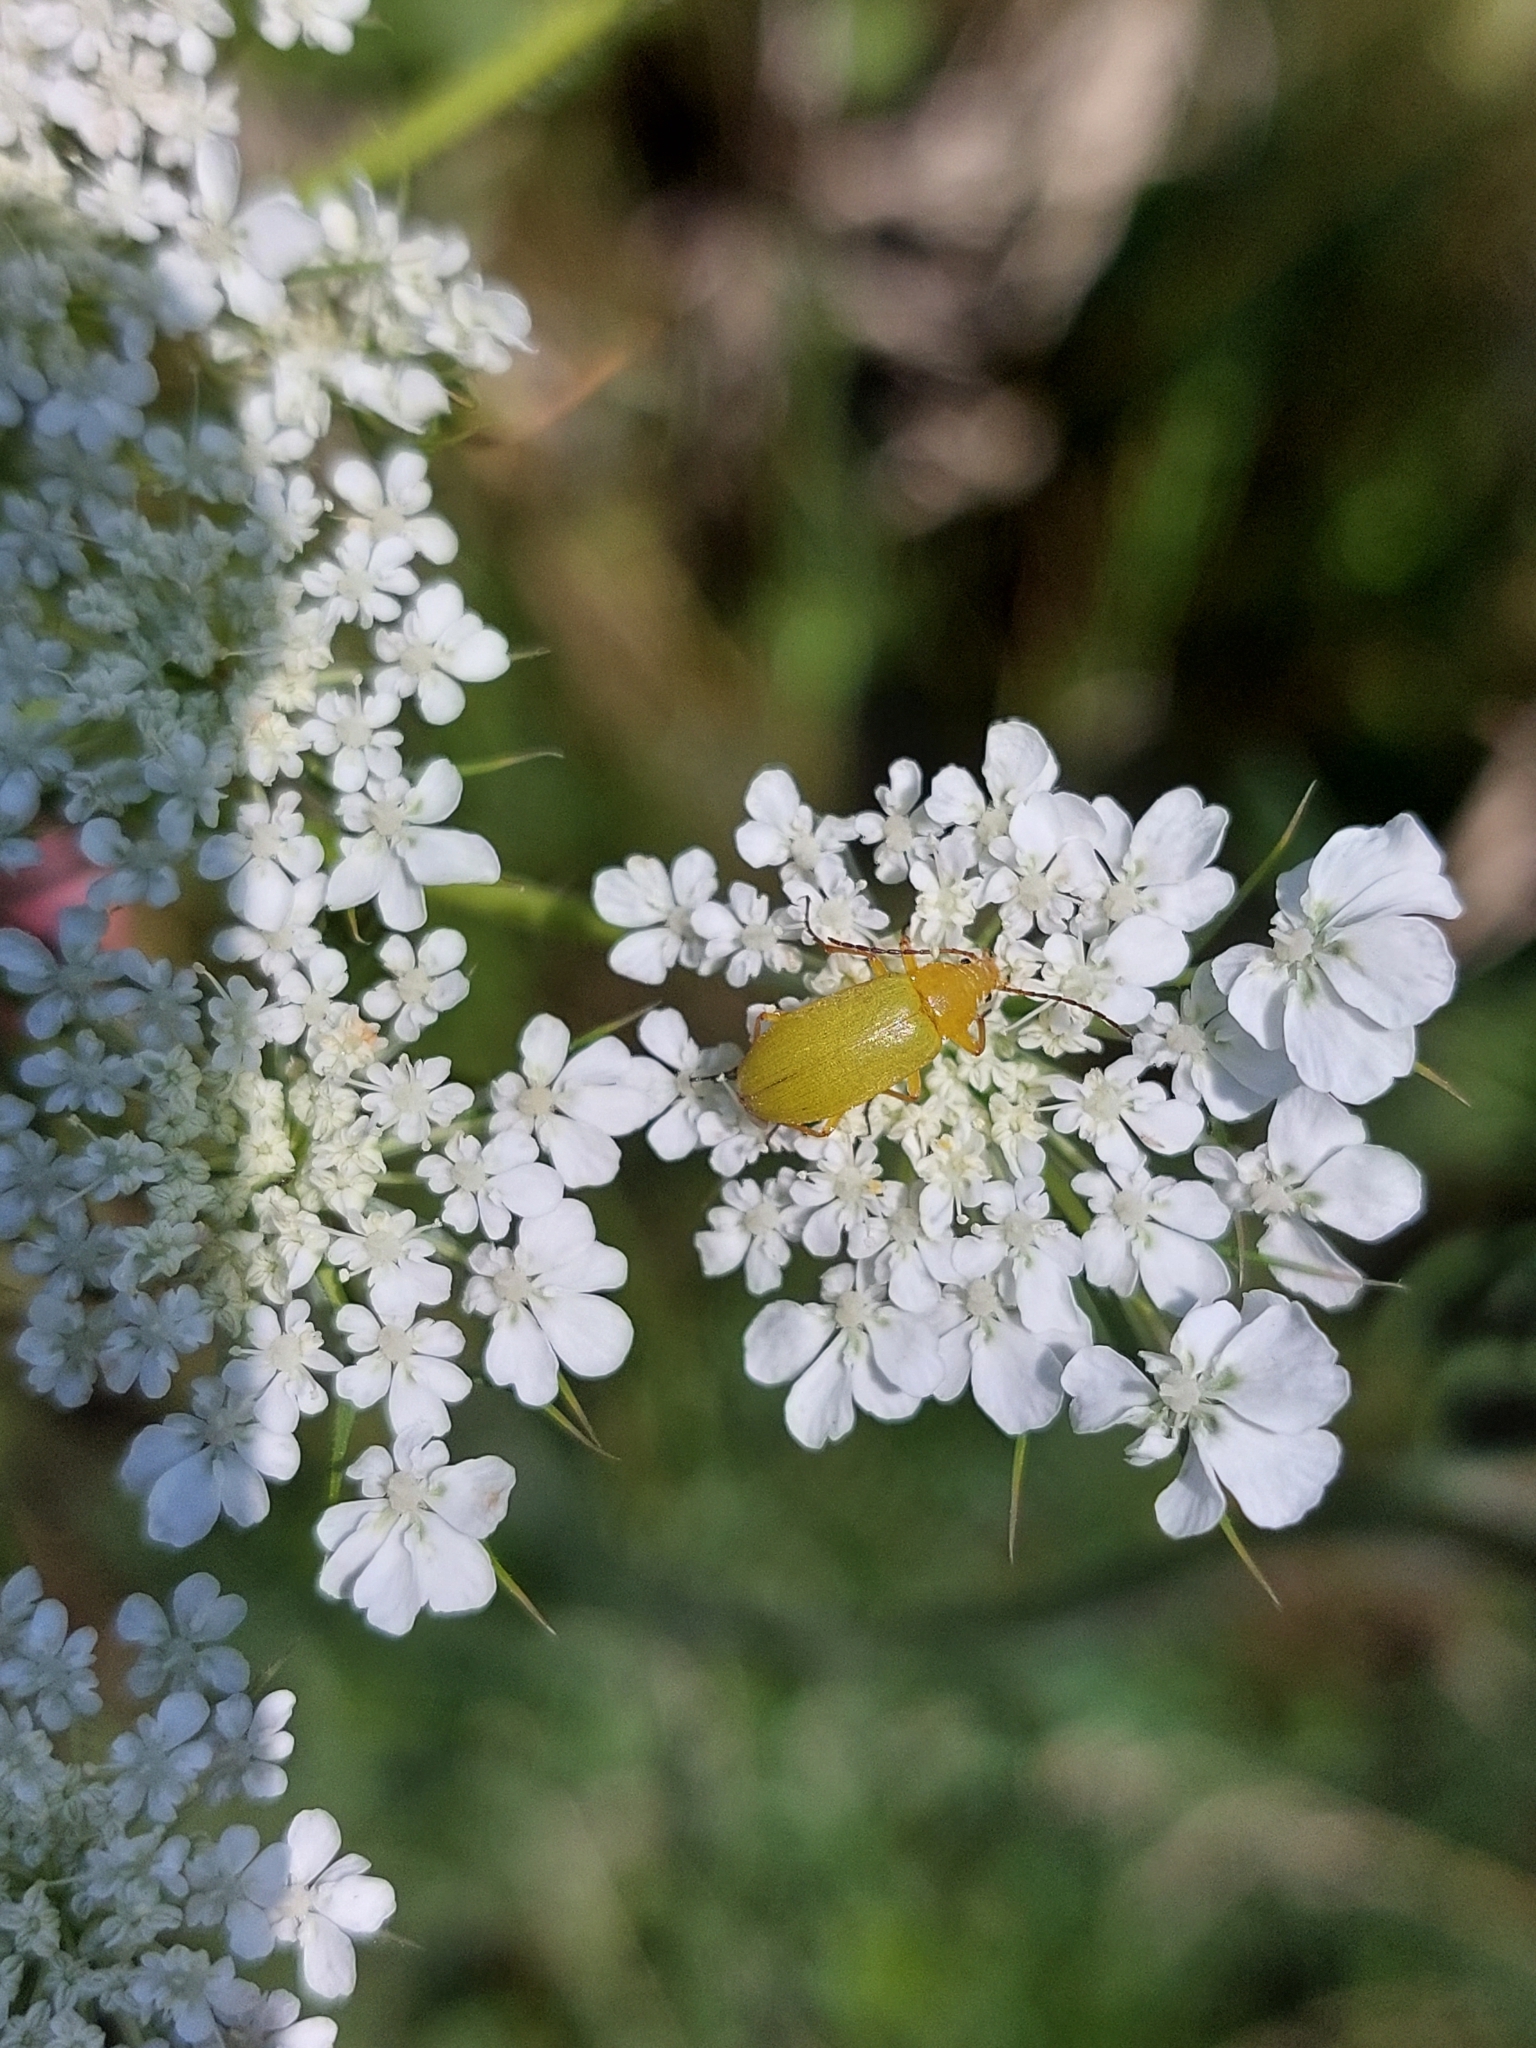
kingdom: Animalia
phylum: Arthropoda
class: Insecta
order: Coleoptera
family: Tenebrionidae
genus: Cteniopus
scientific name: Cteniopus sulphureus
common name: Sulphur beetle
